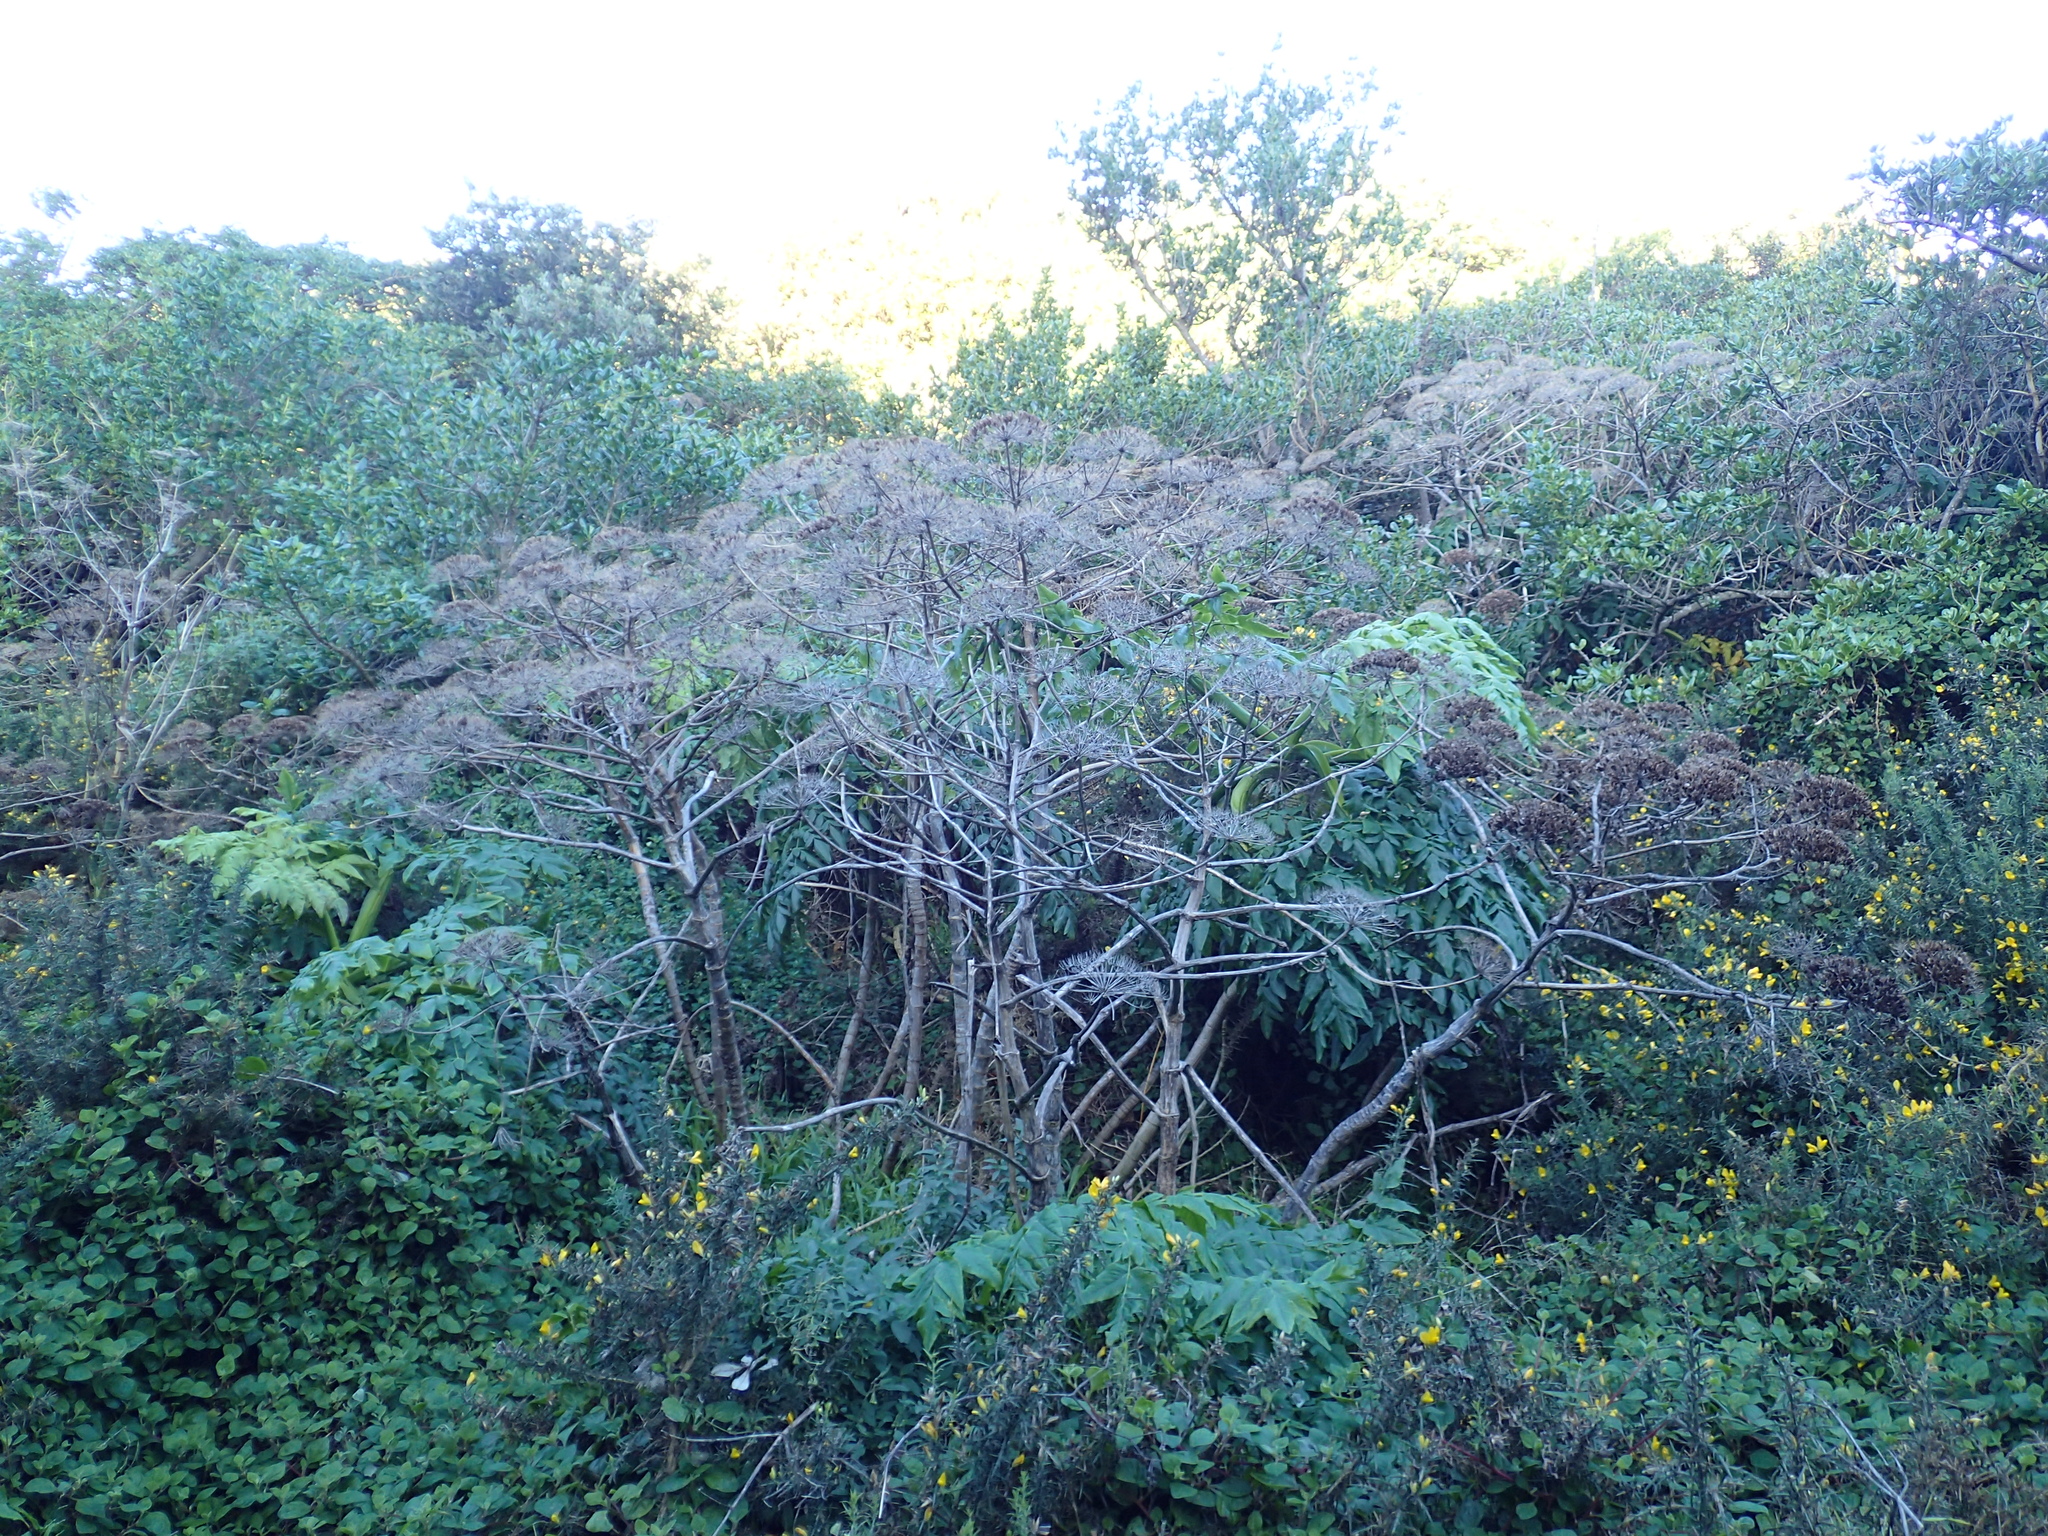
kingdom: Plantae
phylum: Tracheophyta
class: Magnoliopsida
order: Apiales
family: Apiaceae
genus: Daucus
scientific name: Daucus decipiens
